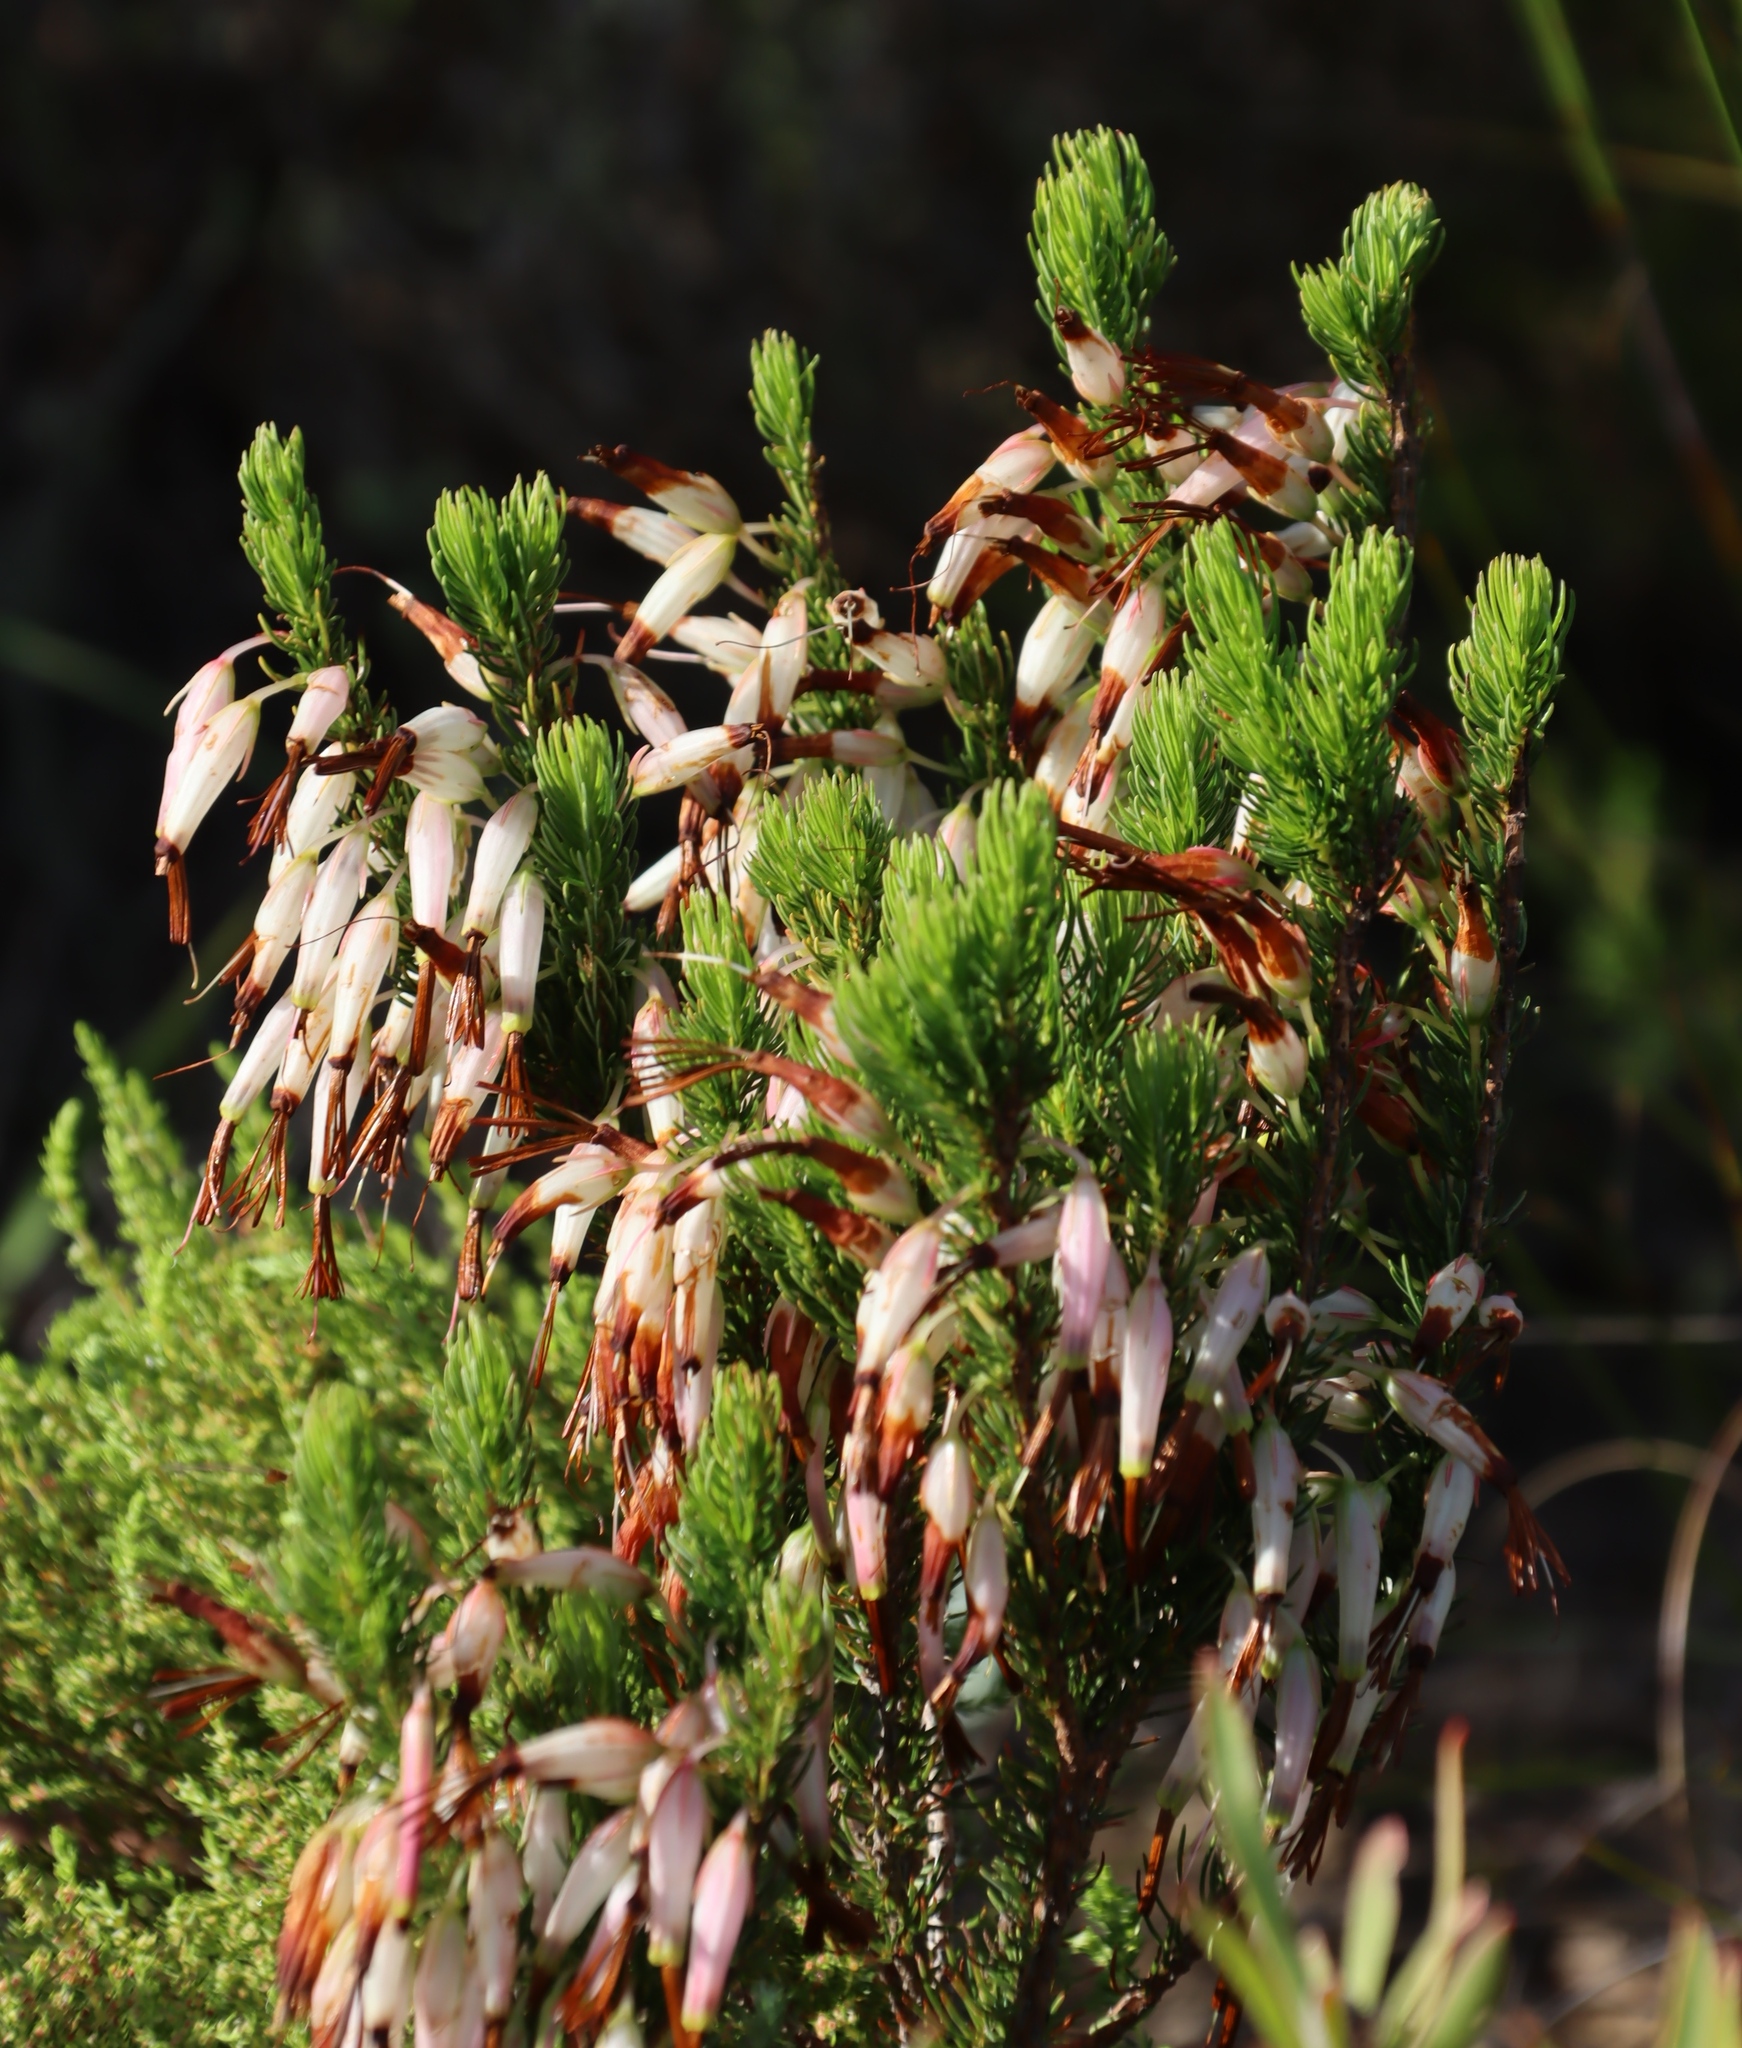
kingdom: Plantae
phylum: Tracheophyta
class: Magnoliopsida
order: Ericales
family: Ericaceae
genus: Erica
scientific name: Erica plukenetii
